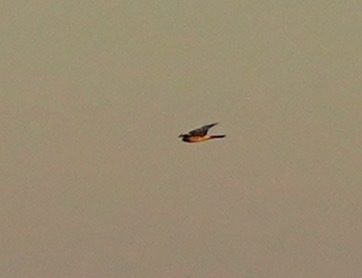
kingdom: Animalia
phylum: Chordata
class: Aves
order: Accipitriformes
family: Accipitridae
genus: Circus
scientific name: Circus cyaneus
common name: Hen harrier
